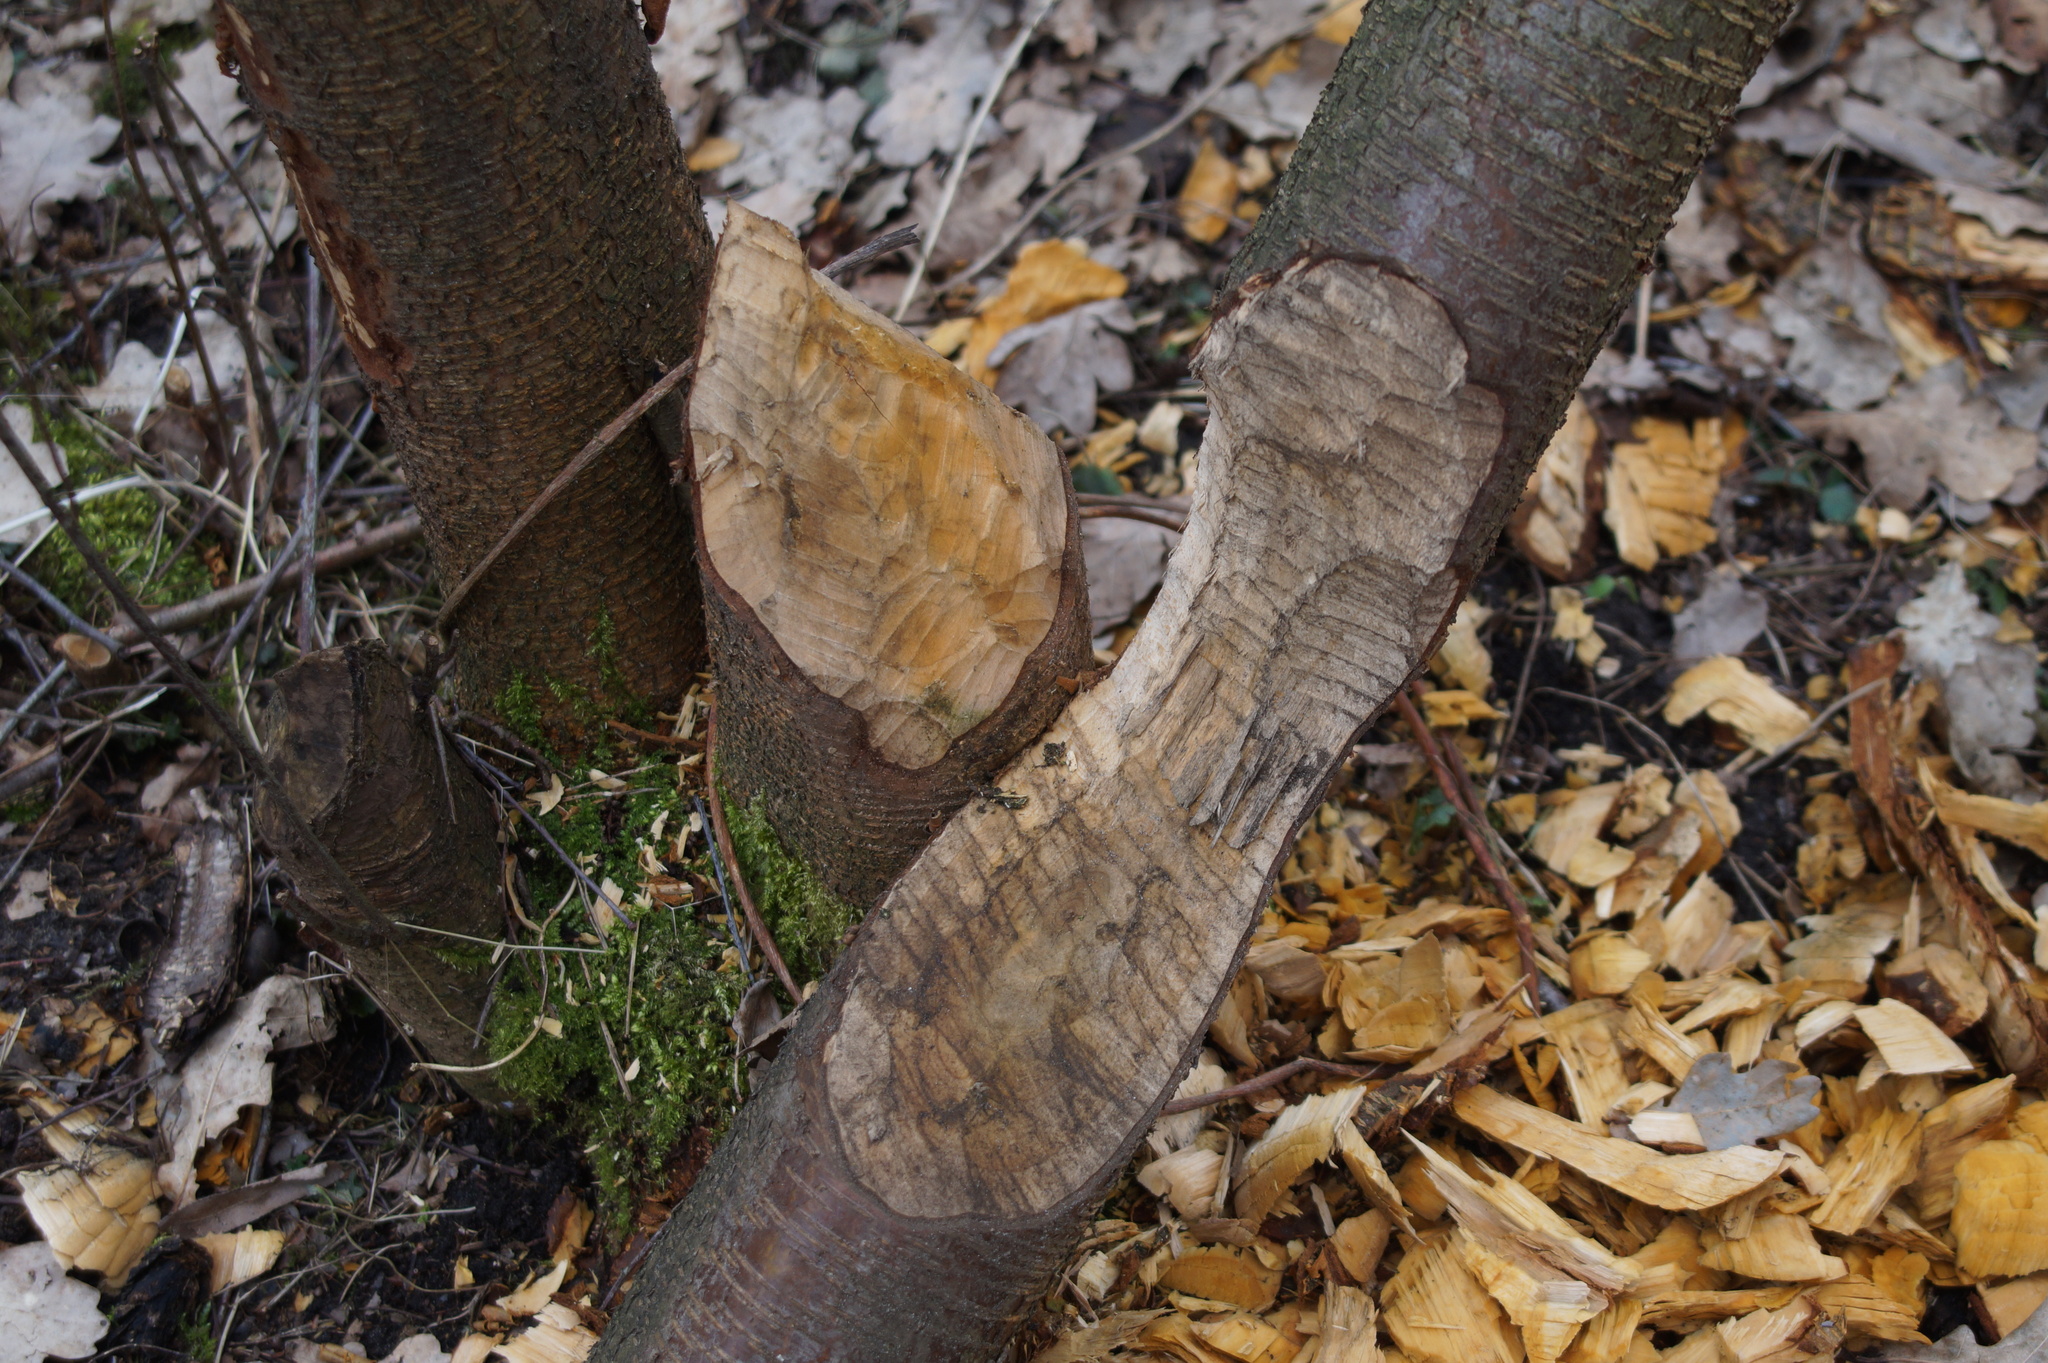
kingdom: Animalia
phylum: Chordata
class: Mammalia
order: Rodentia
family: Castoridae
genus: Castor
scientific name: Castor fiber
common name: Eurasian beaver
